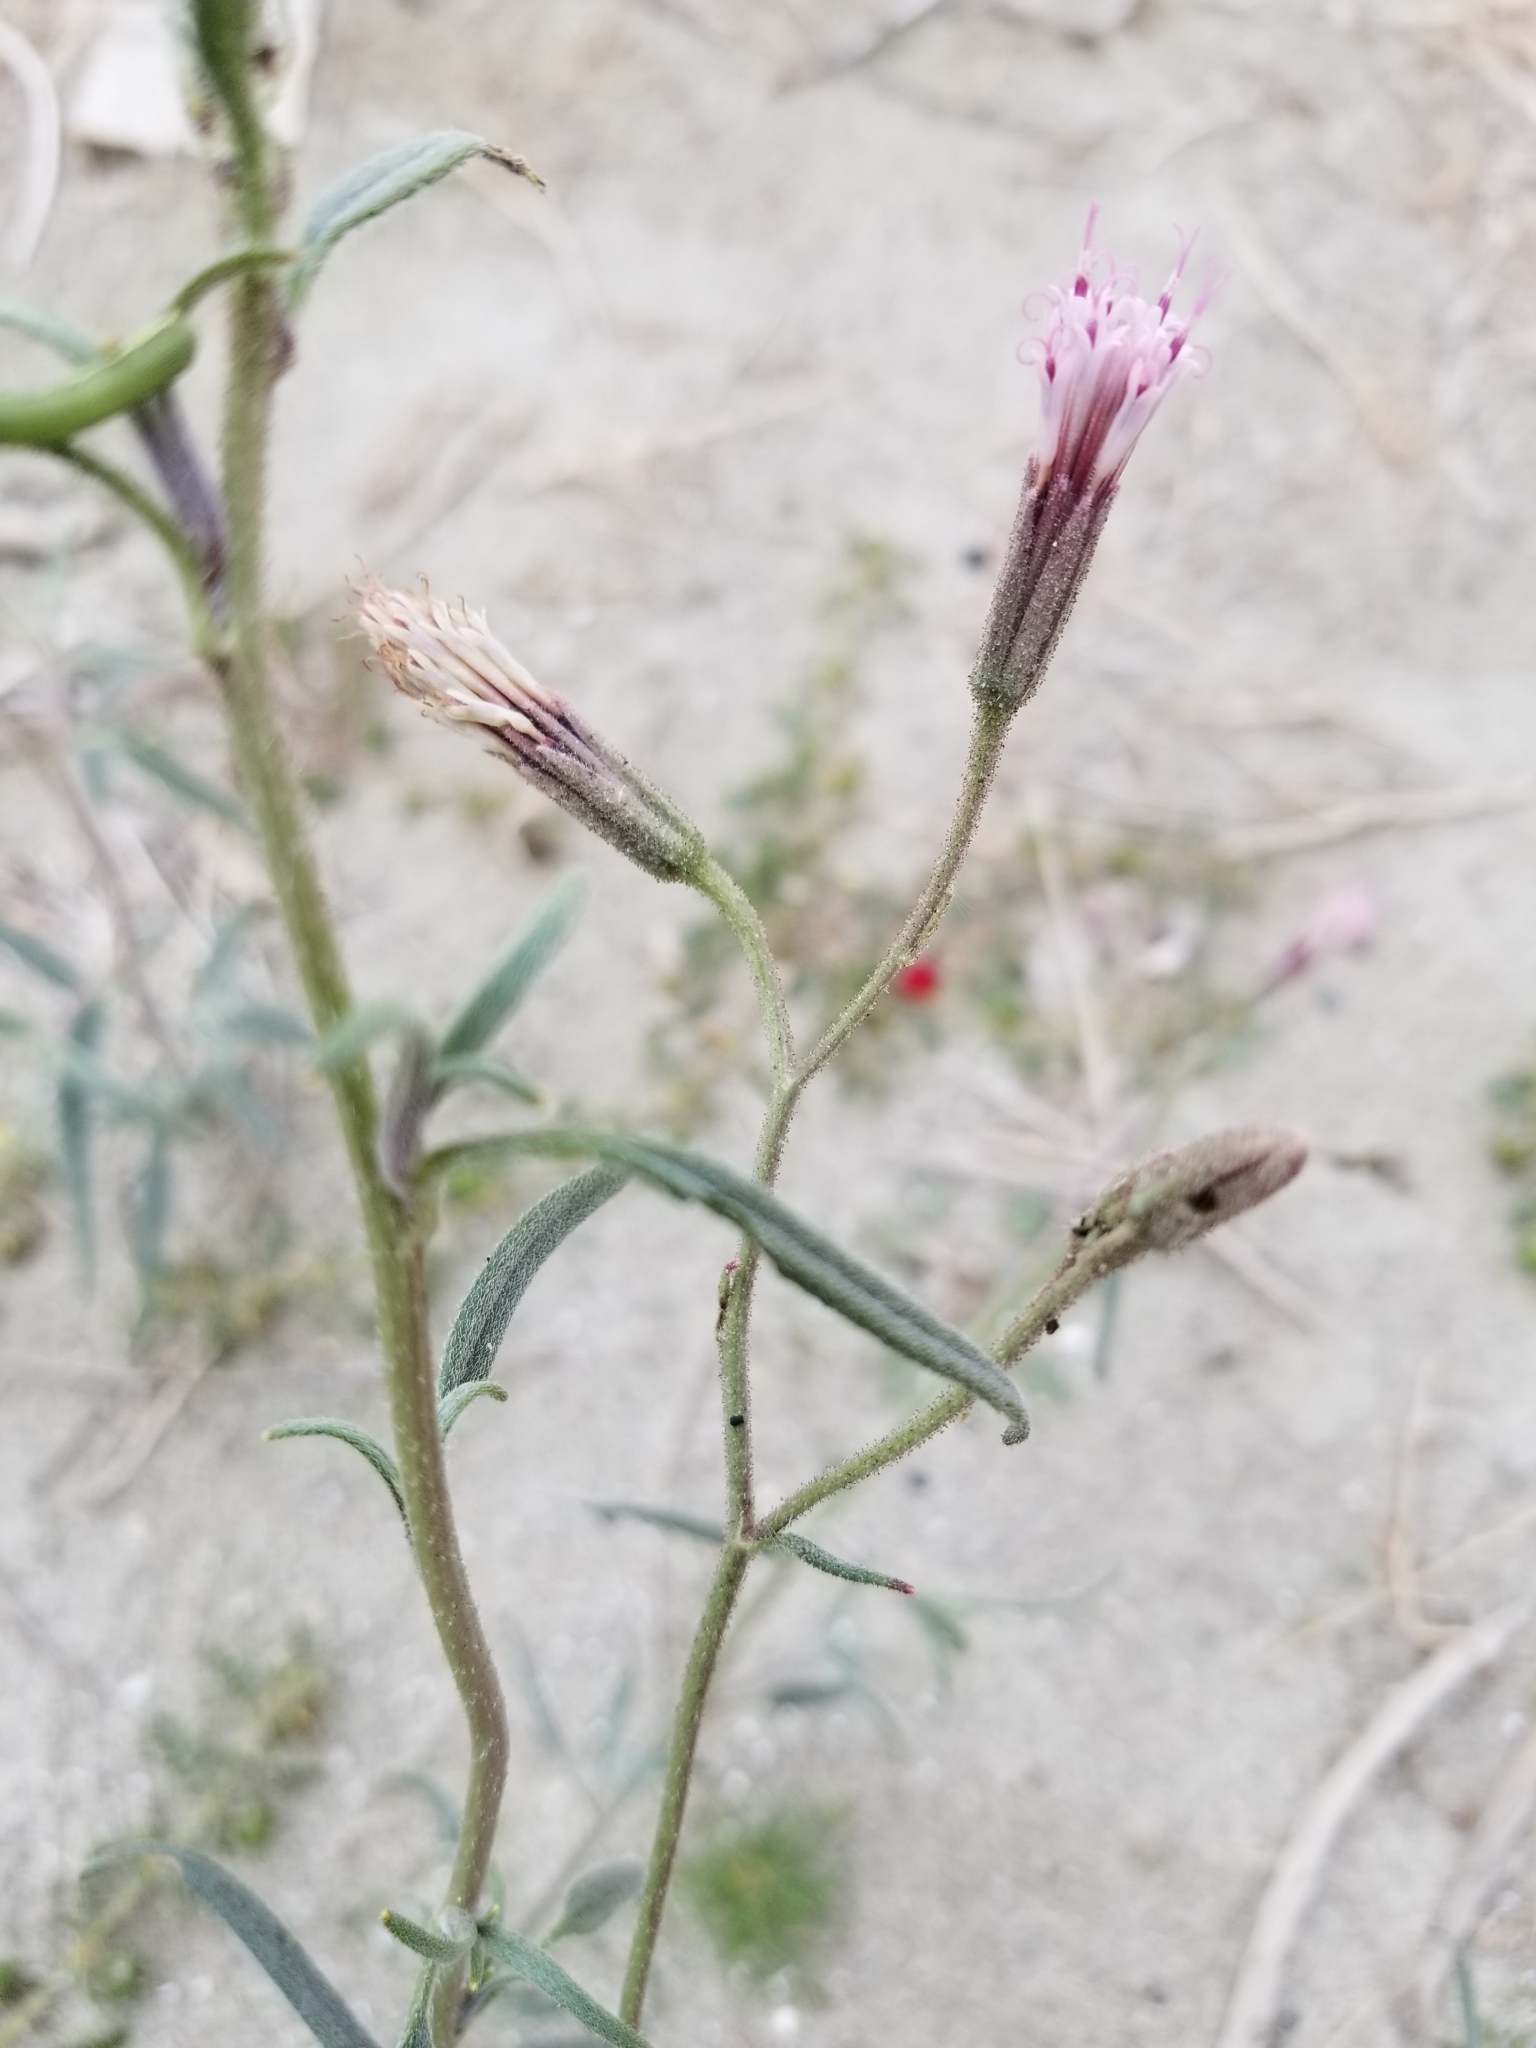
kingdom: Plantae
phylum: Tracheophyta
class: Magnoliopsida
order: Asterales
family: Asteraceae
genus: Palafoxia
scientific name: Palafoxia arida
